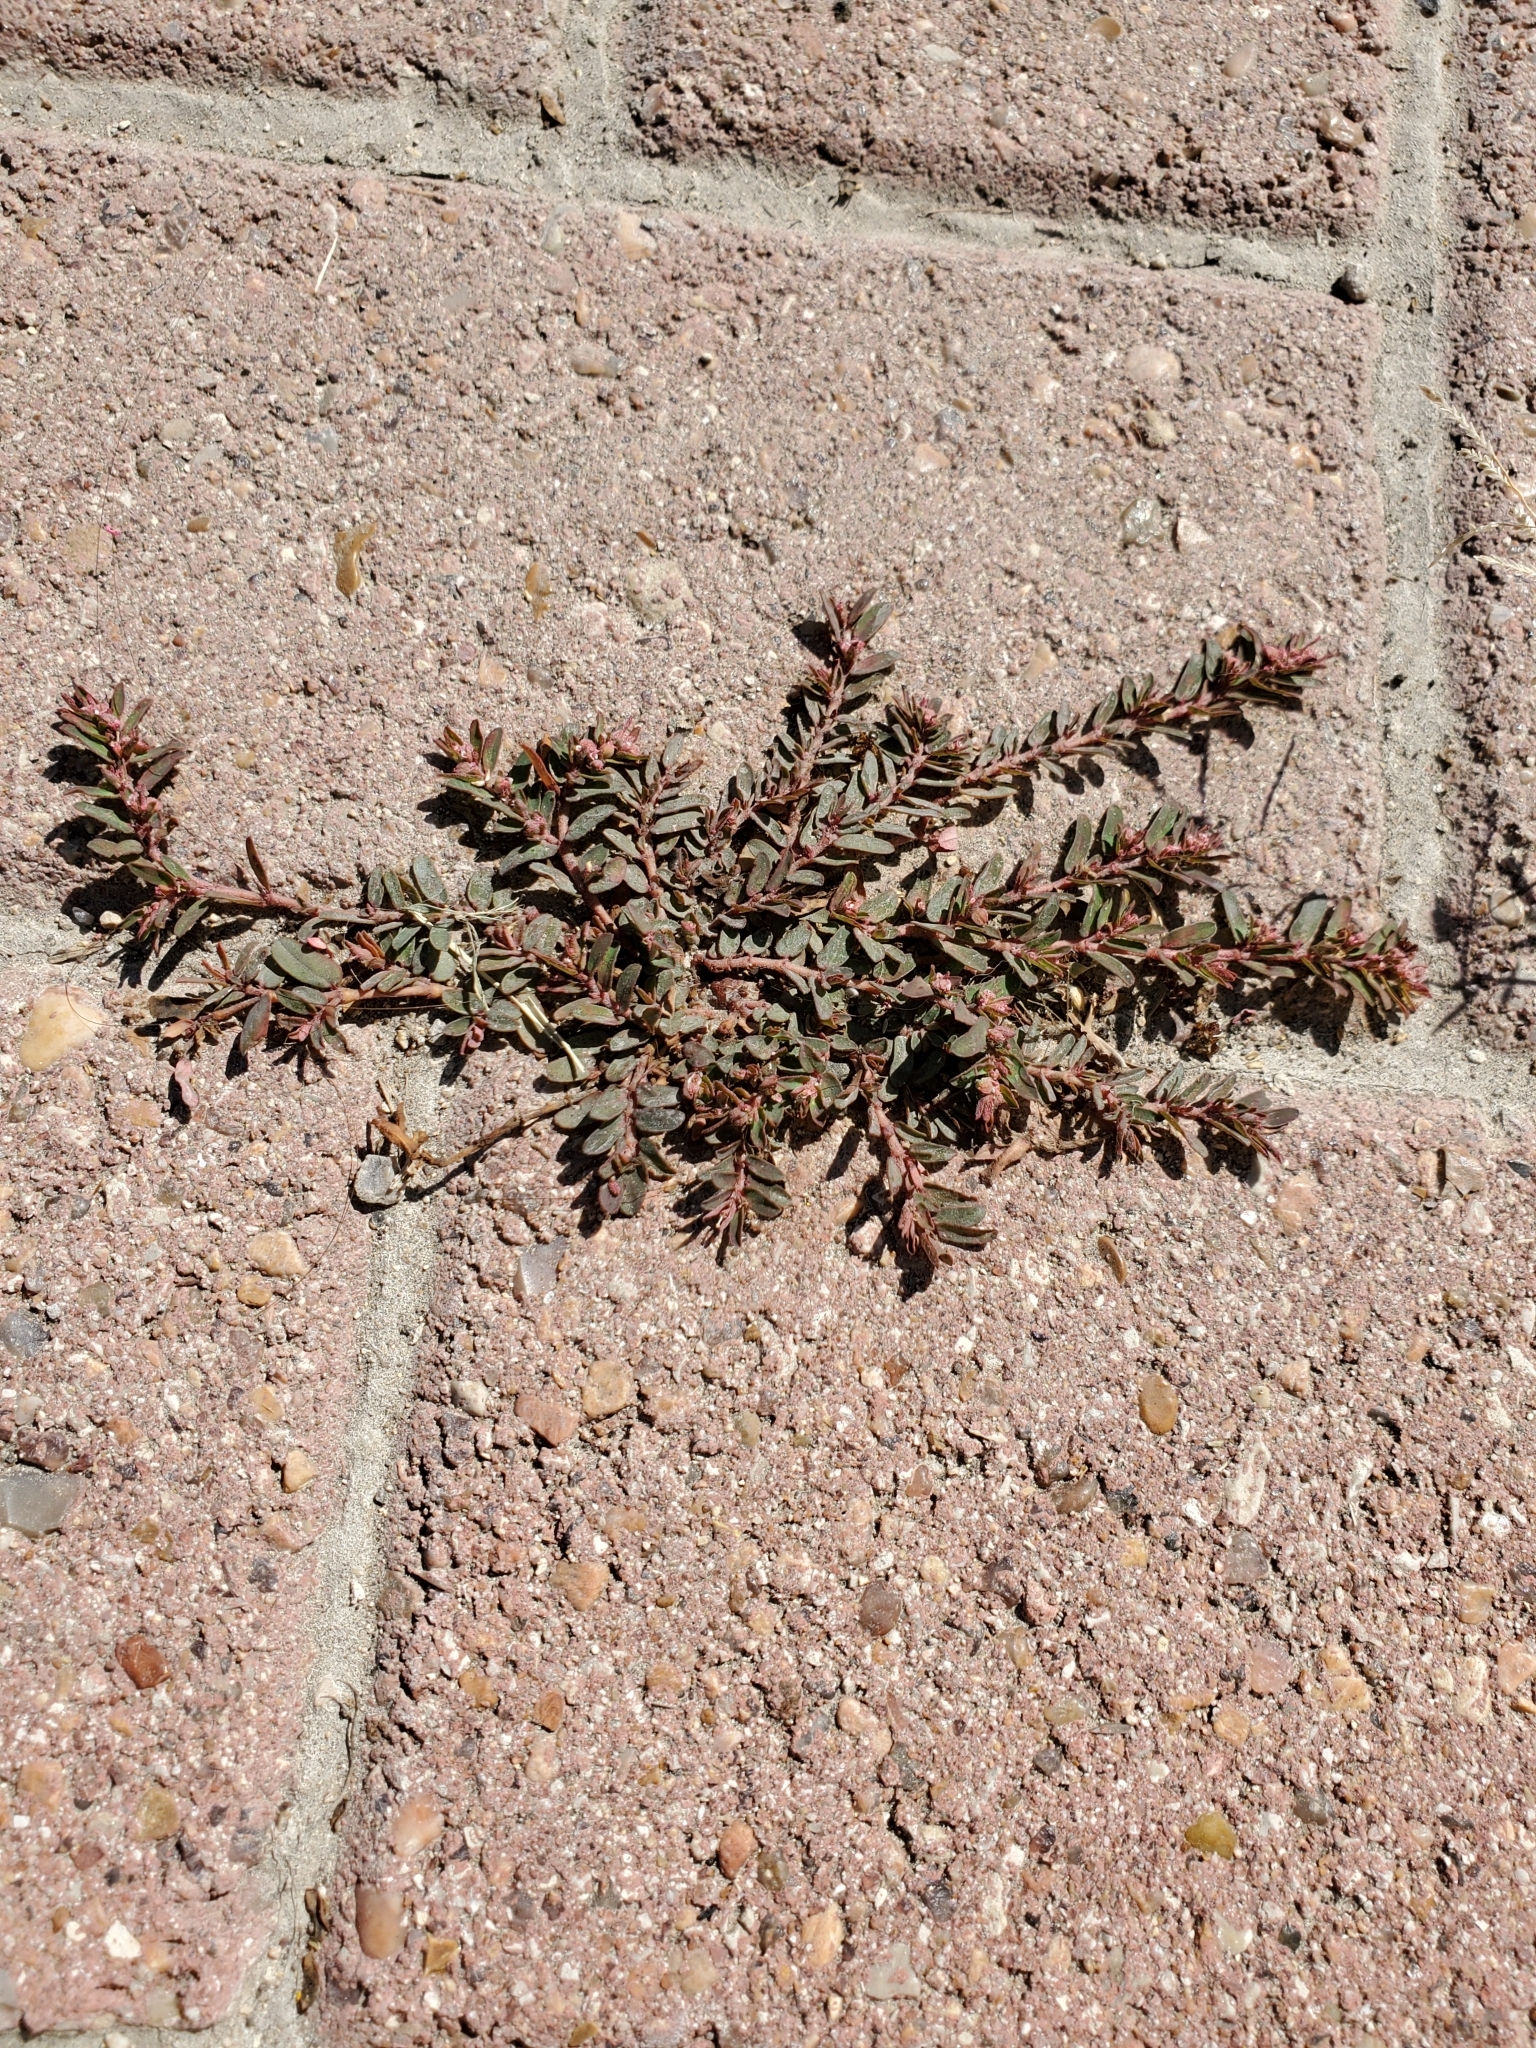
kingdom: Plantae
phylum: Tracheophyta
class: Magnoliopsida
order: Malpighiales
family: Euphorbiaceae
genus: Euphorbia
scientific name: Euphorbia maculata
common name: Spotted spurge
